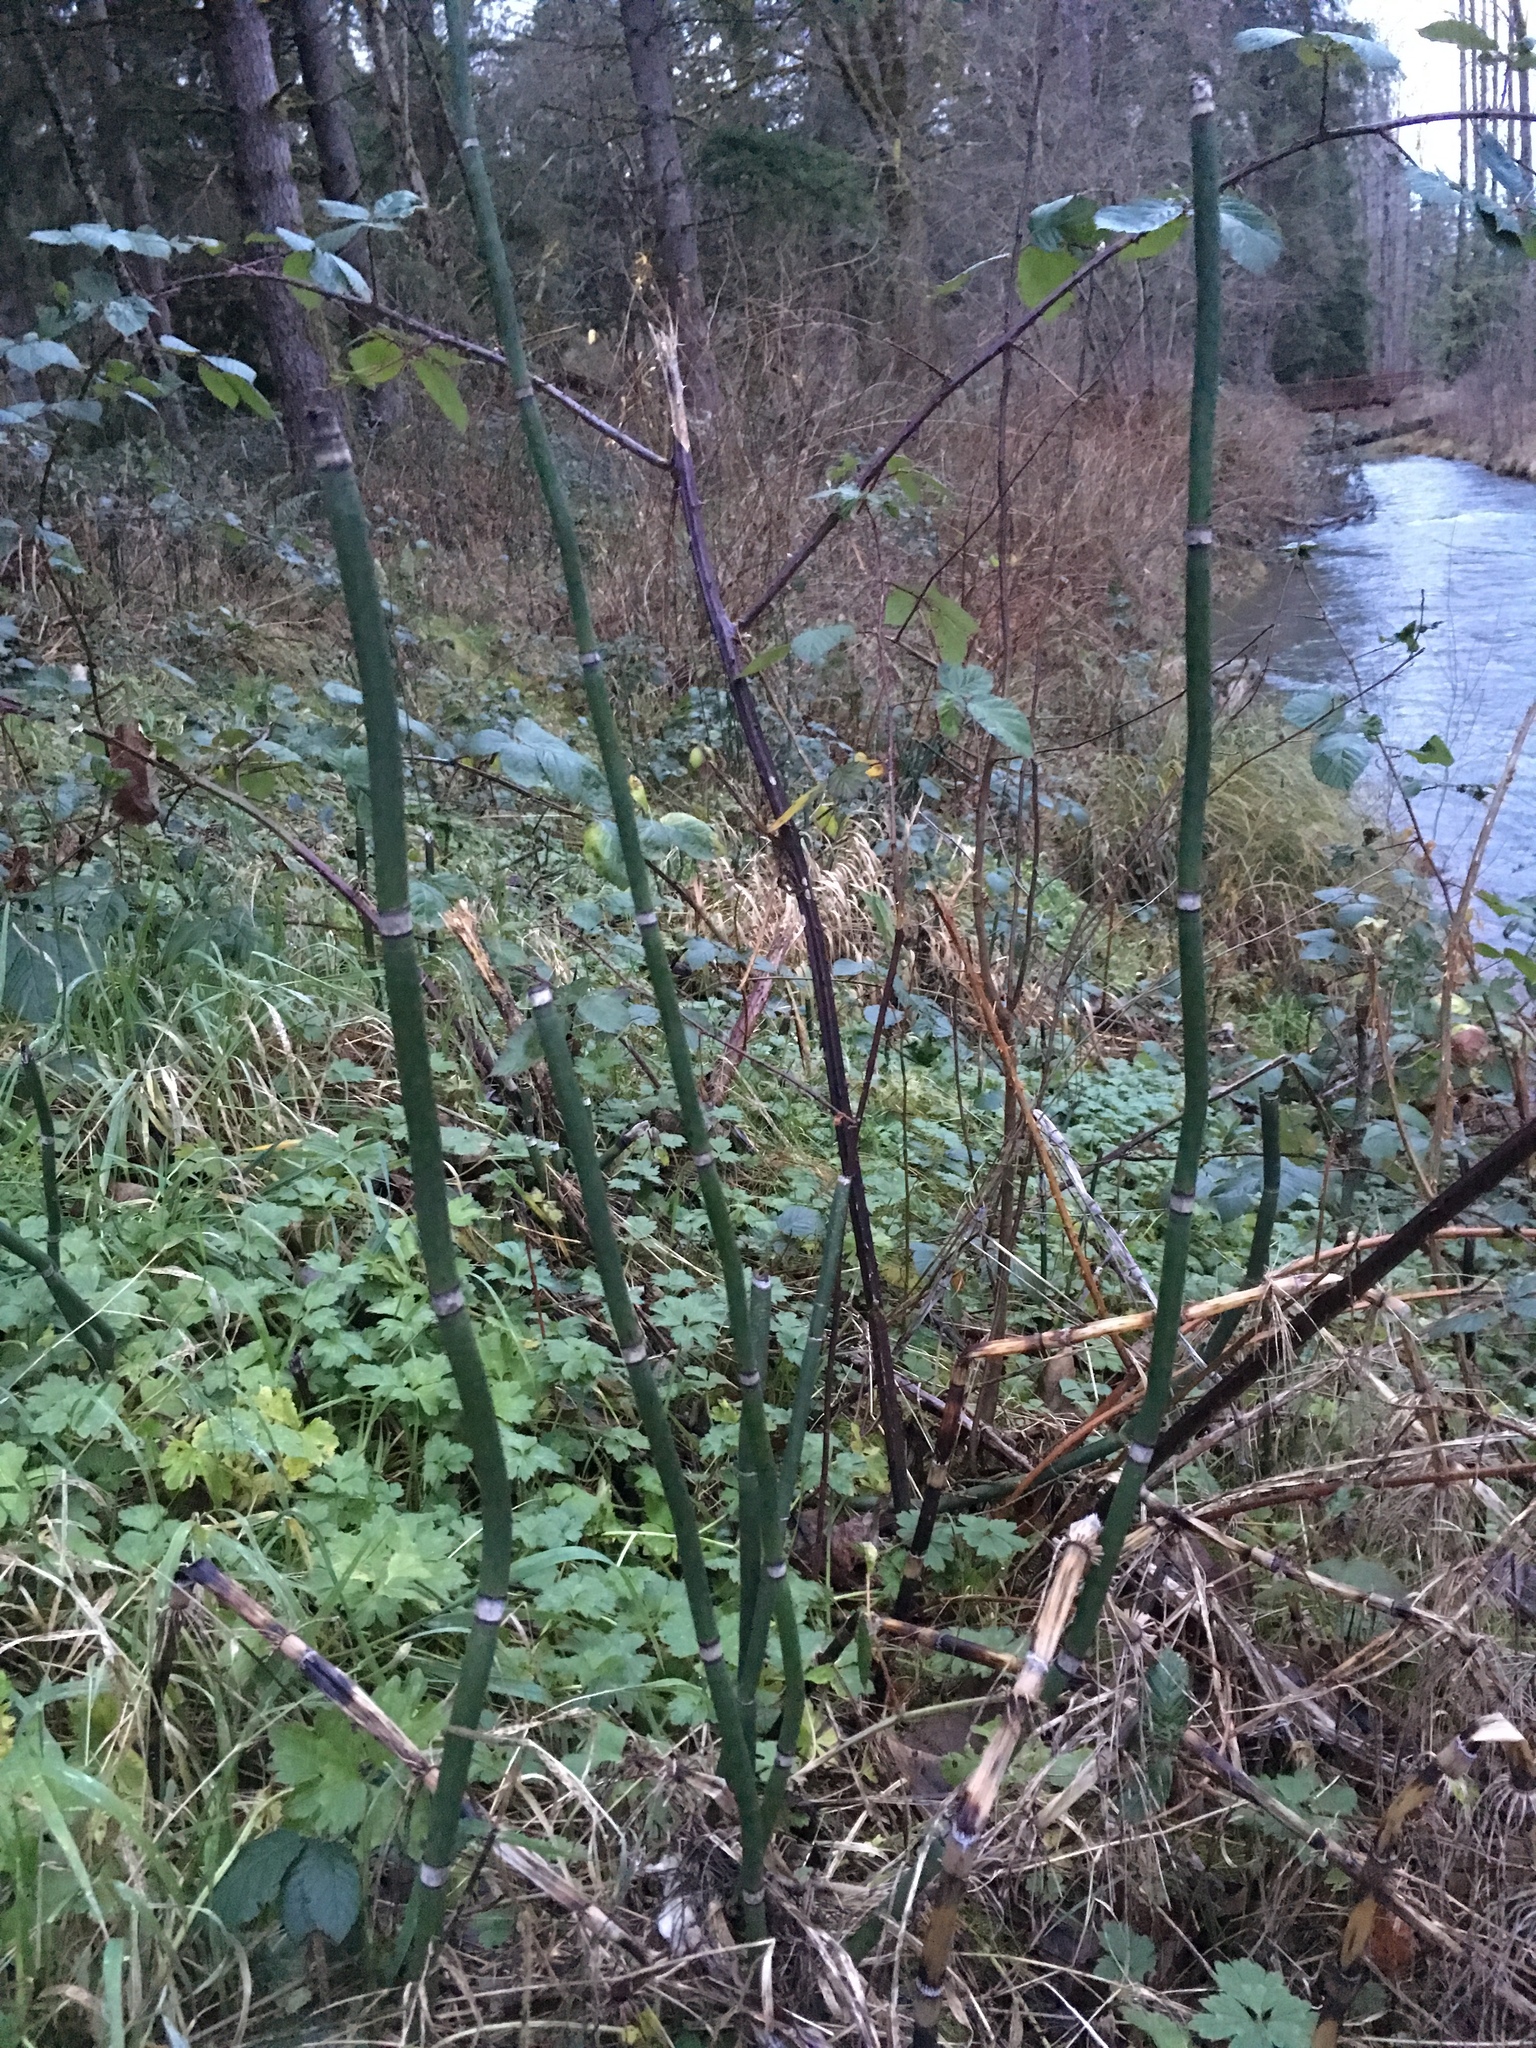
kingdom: Plantae
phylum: Tracheophyta
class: Polypodiopsida
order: Equisetales
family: Equisetaceae
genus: Equisetum
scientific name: Equisetum hyemale
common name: Rough horsetail
